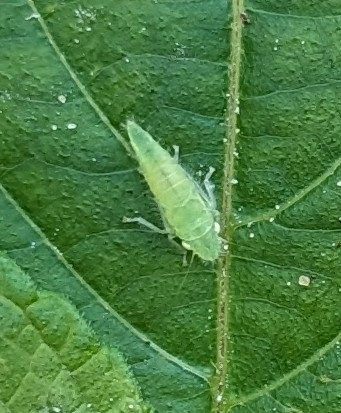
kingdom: Animalia
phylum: Arthropoda
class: Insecta
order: Hemiptera
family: Cicadellidae
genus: Paraulacizes
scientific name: Paraulacizes irrorata
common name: Speckled sharpshooter
